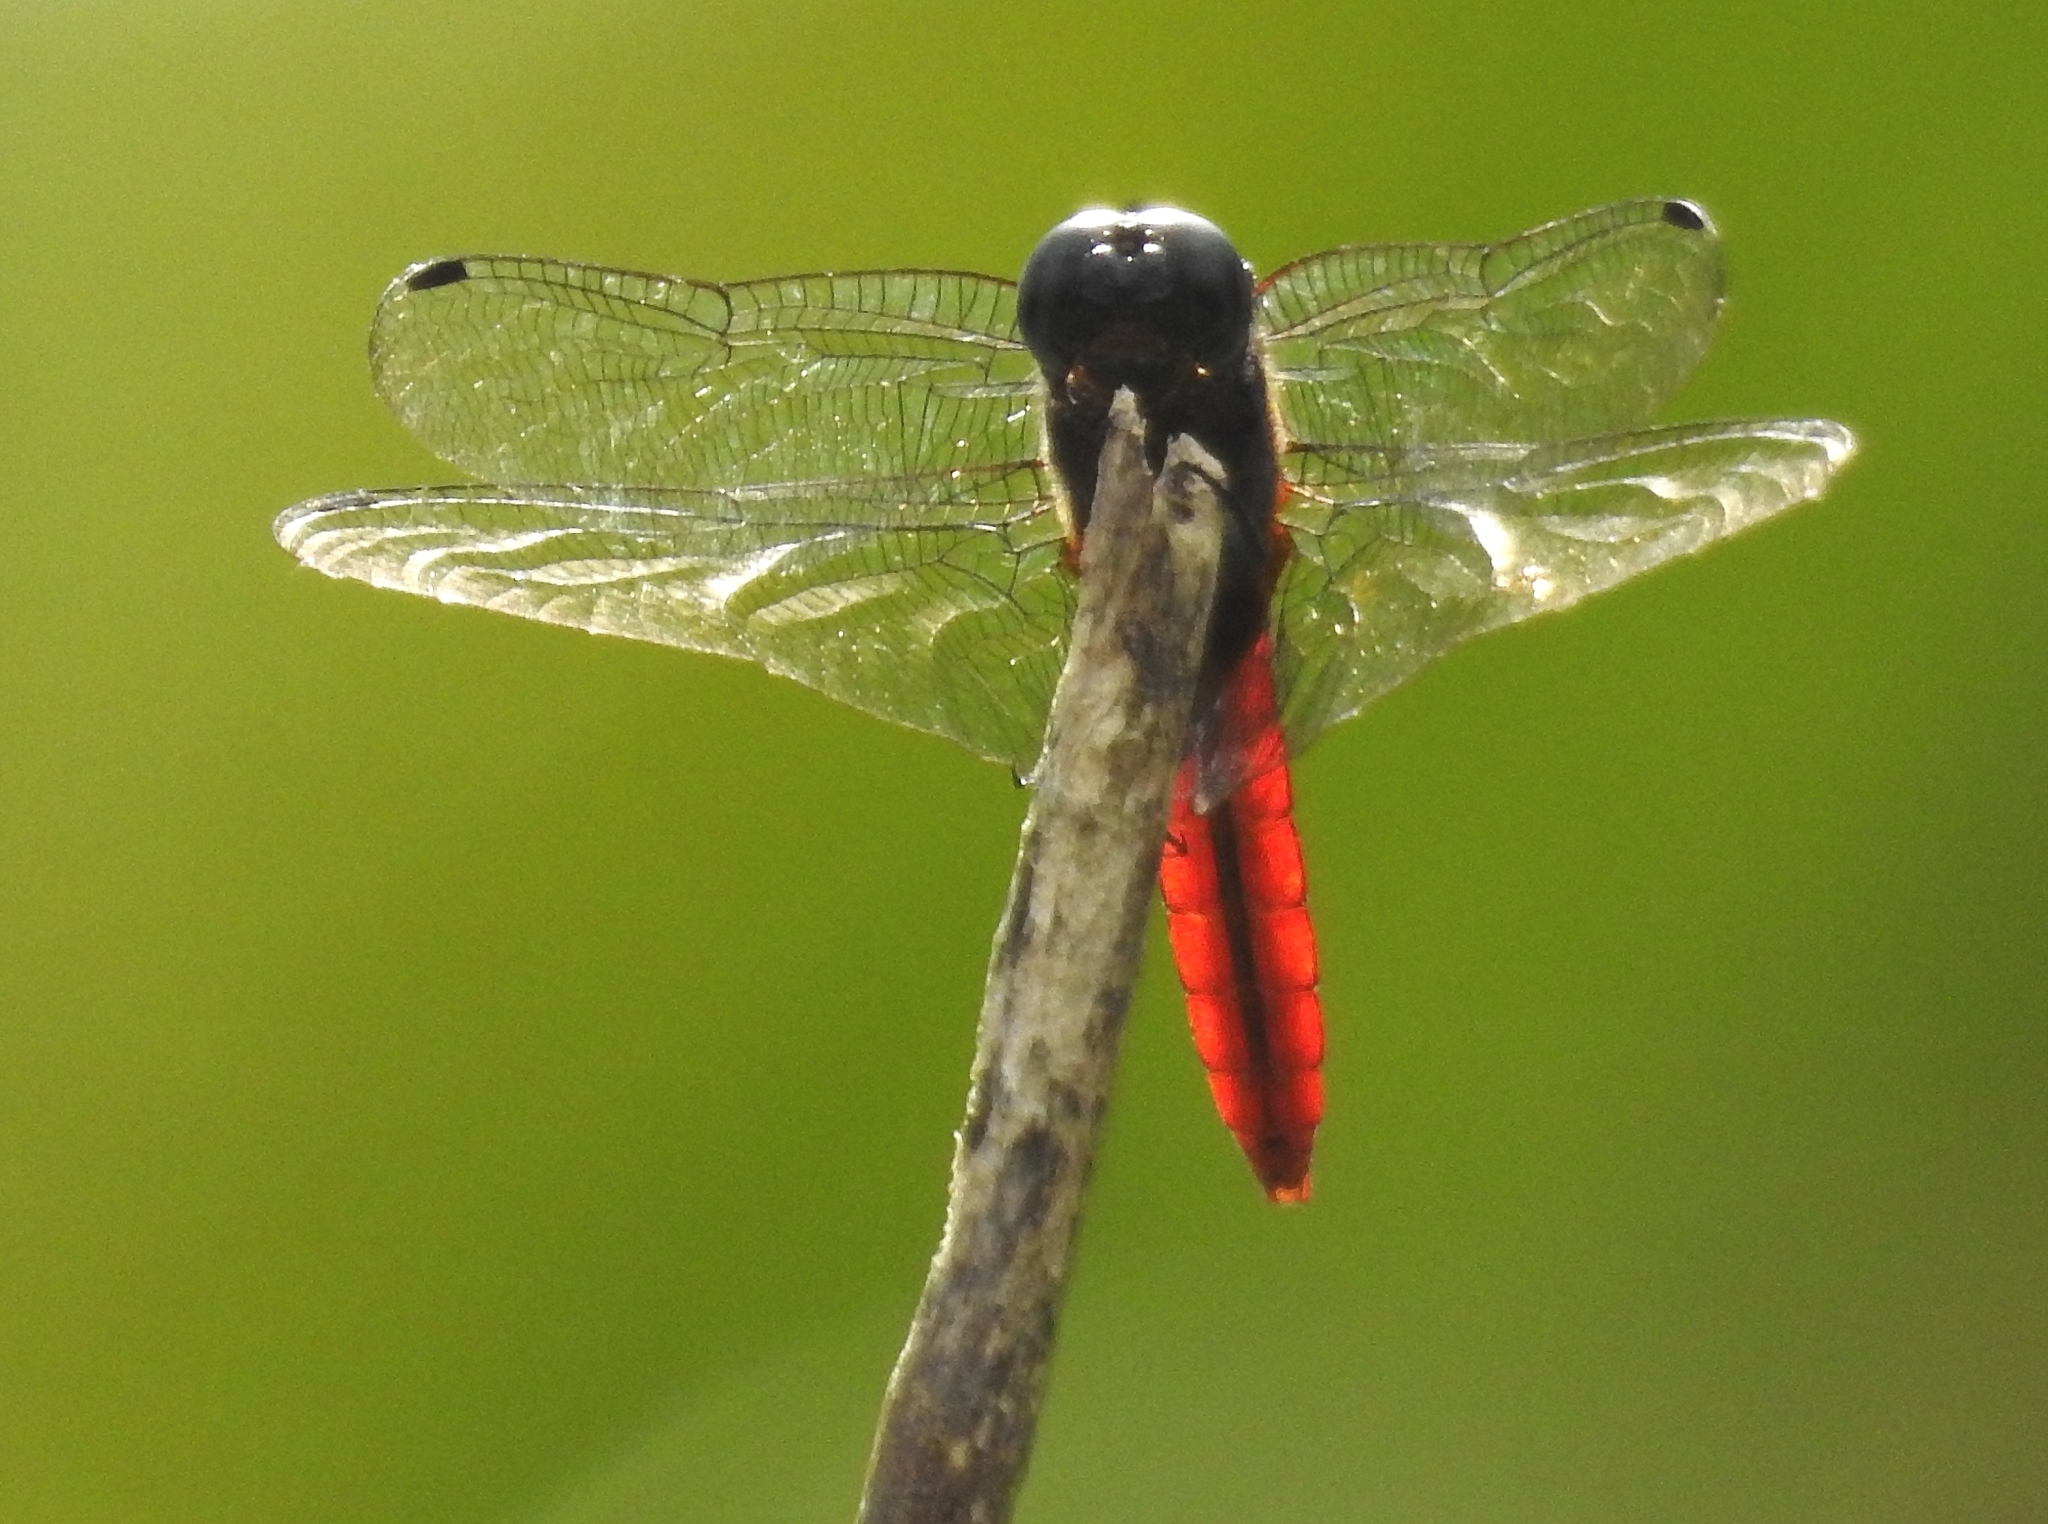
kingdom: Animalia
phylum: Arthropoda
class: Insecta
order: Odonata
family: Libellulidae
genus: Aethriamanta
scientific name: Aethriamanta brevipennis
